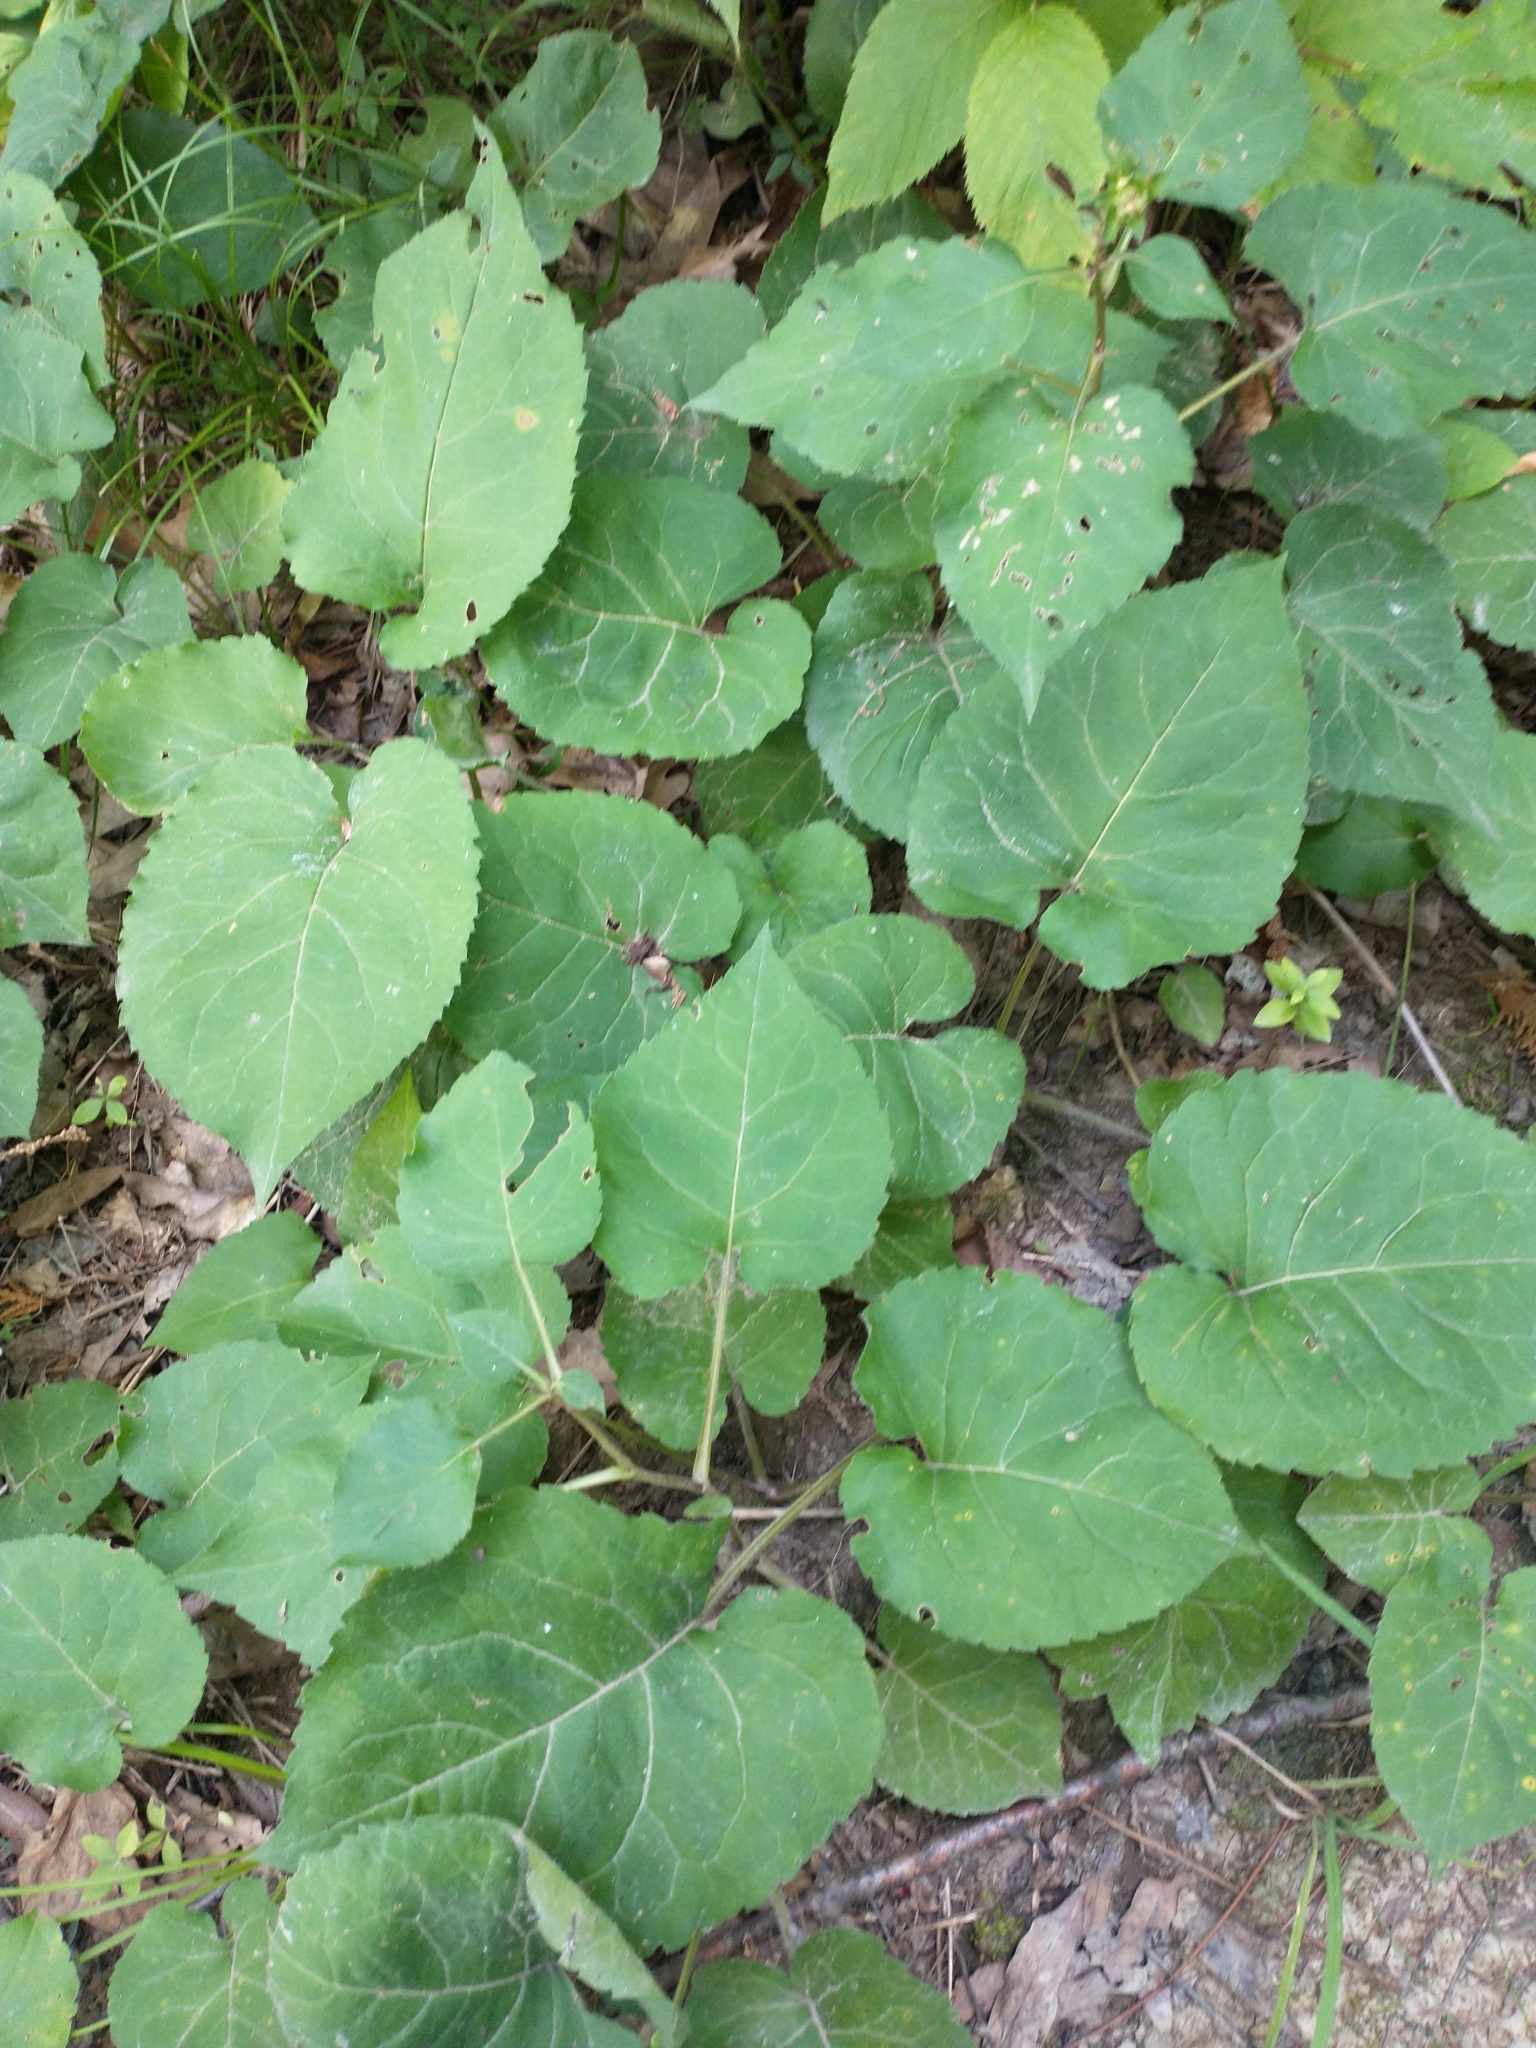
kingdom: Plantae
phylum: Tracheophyta
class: Magnoliopsida
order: Asterales
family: Asteraceae
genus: Eurybia
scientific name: Eurybia macrophylla
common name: Big-leaved aster
